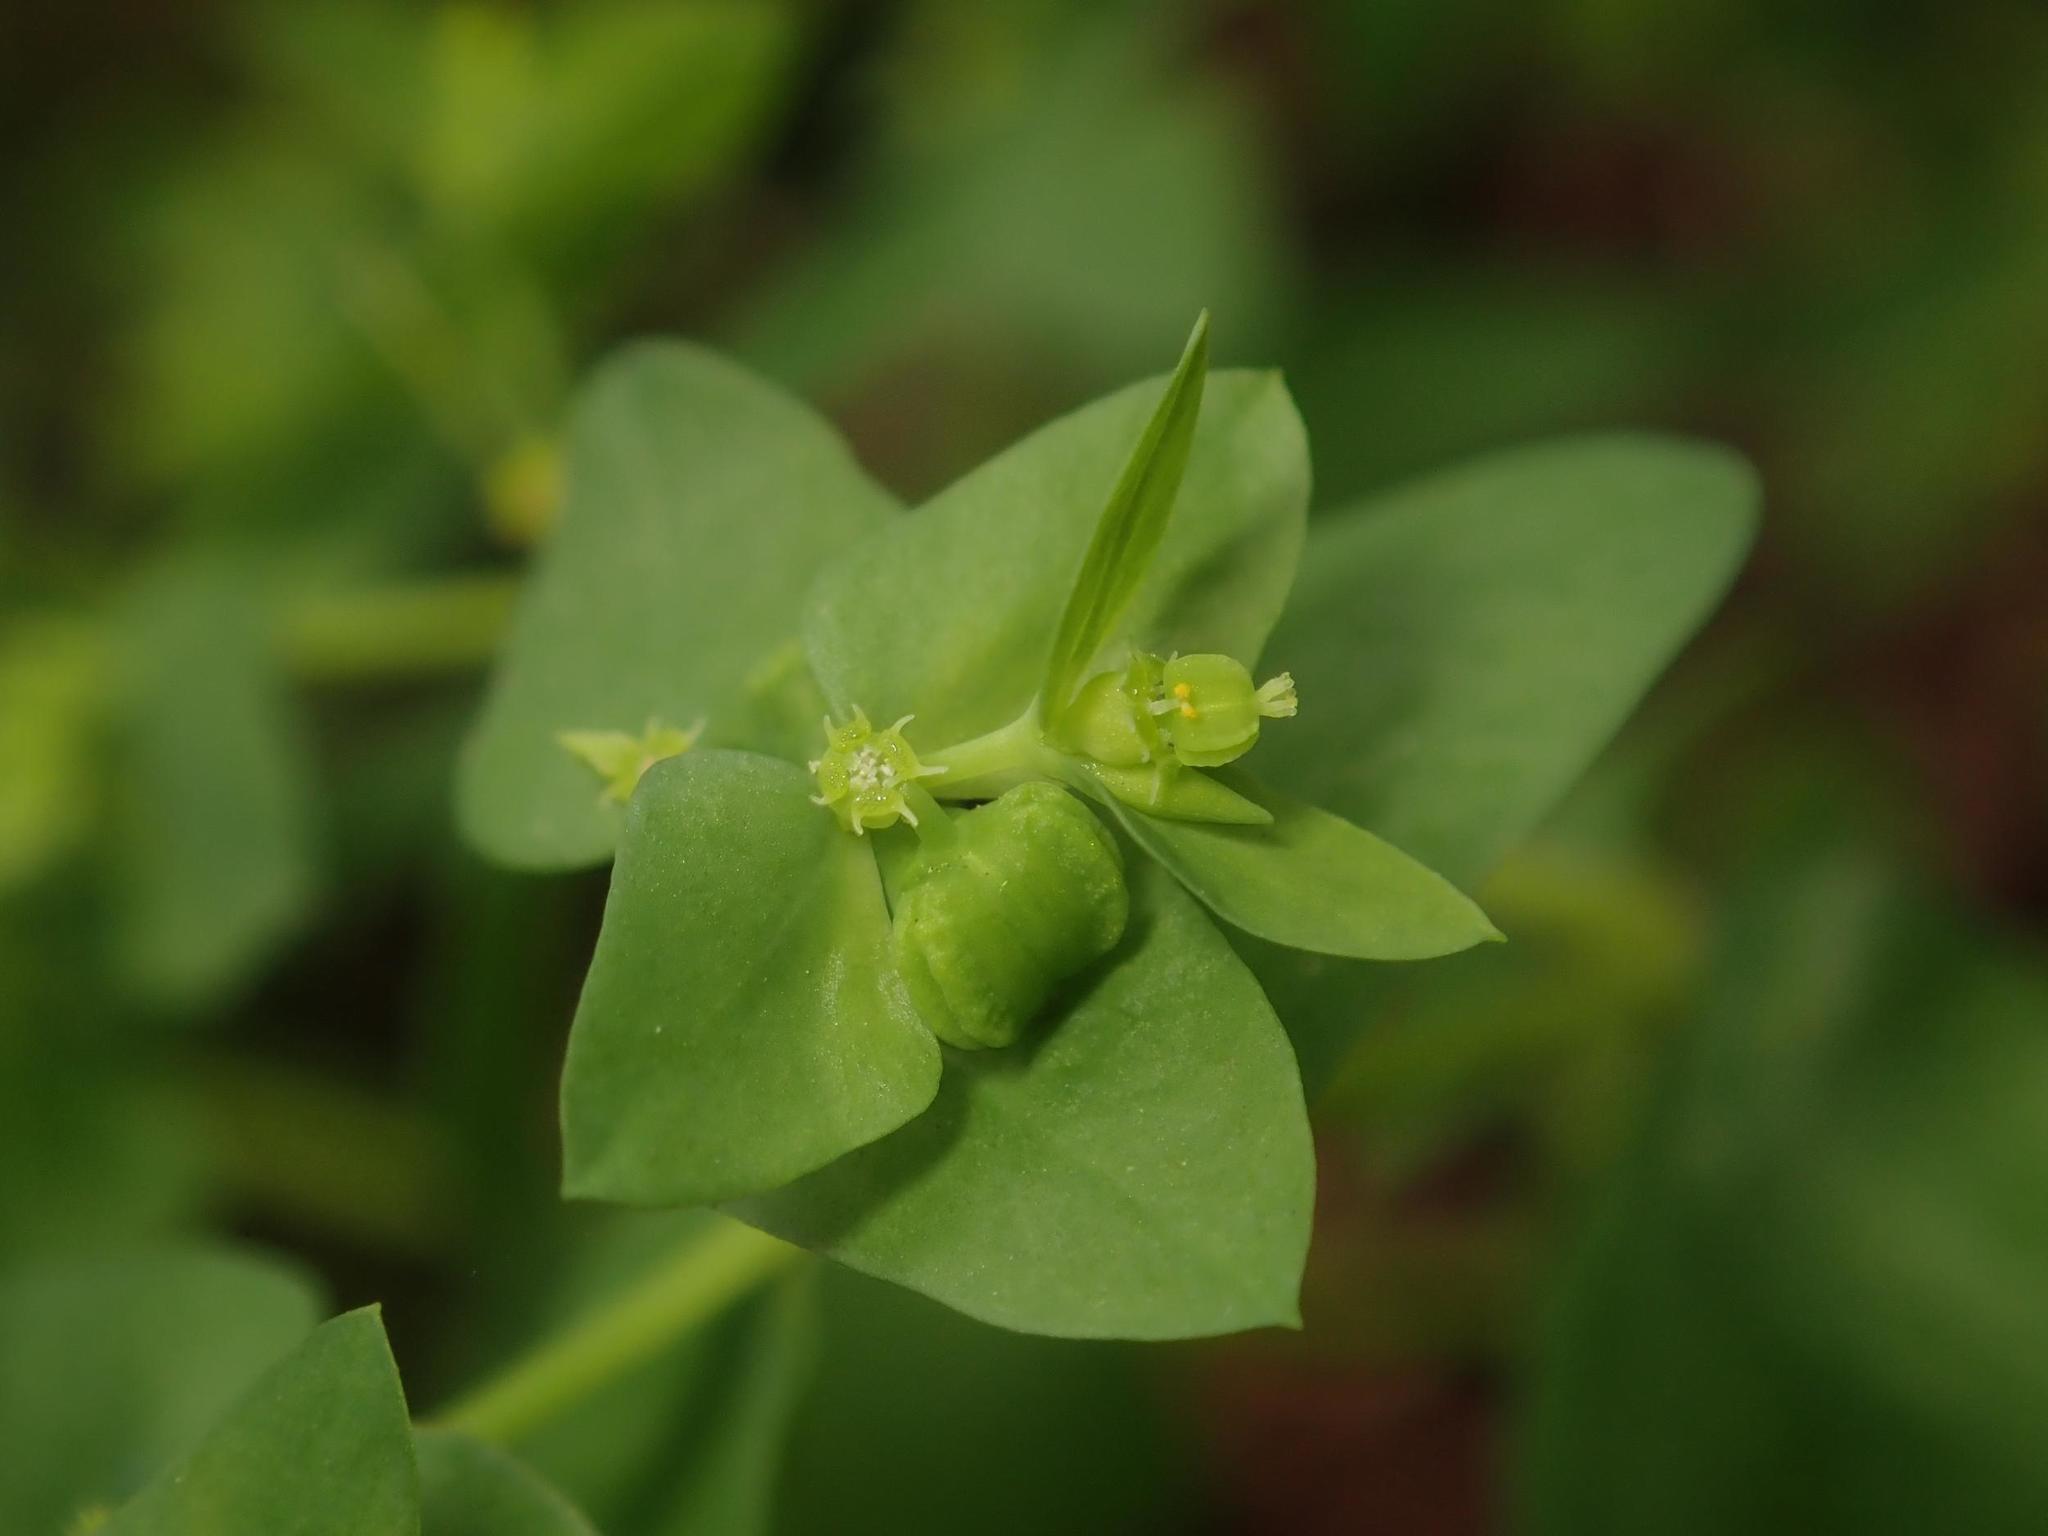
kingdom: Plantae
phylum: Tracheophyta
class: Magnoliopsida
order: Malpighiales
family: Euphorbiaceae
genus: Euphorbia
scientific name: Euphorbia peplus
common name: Petty spurge
